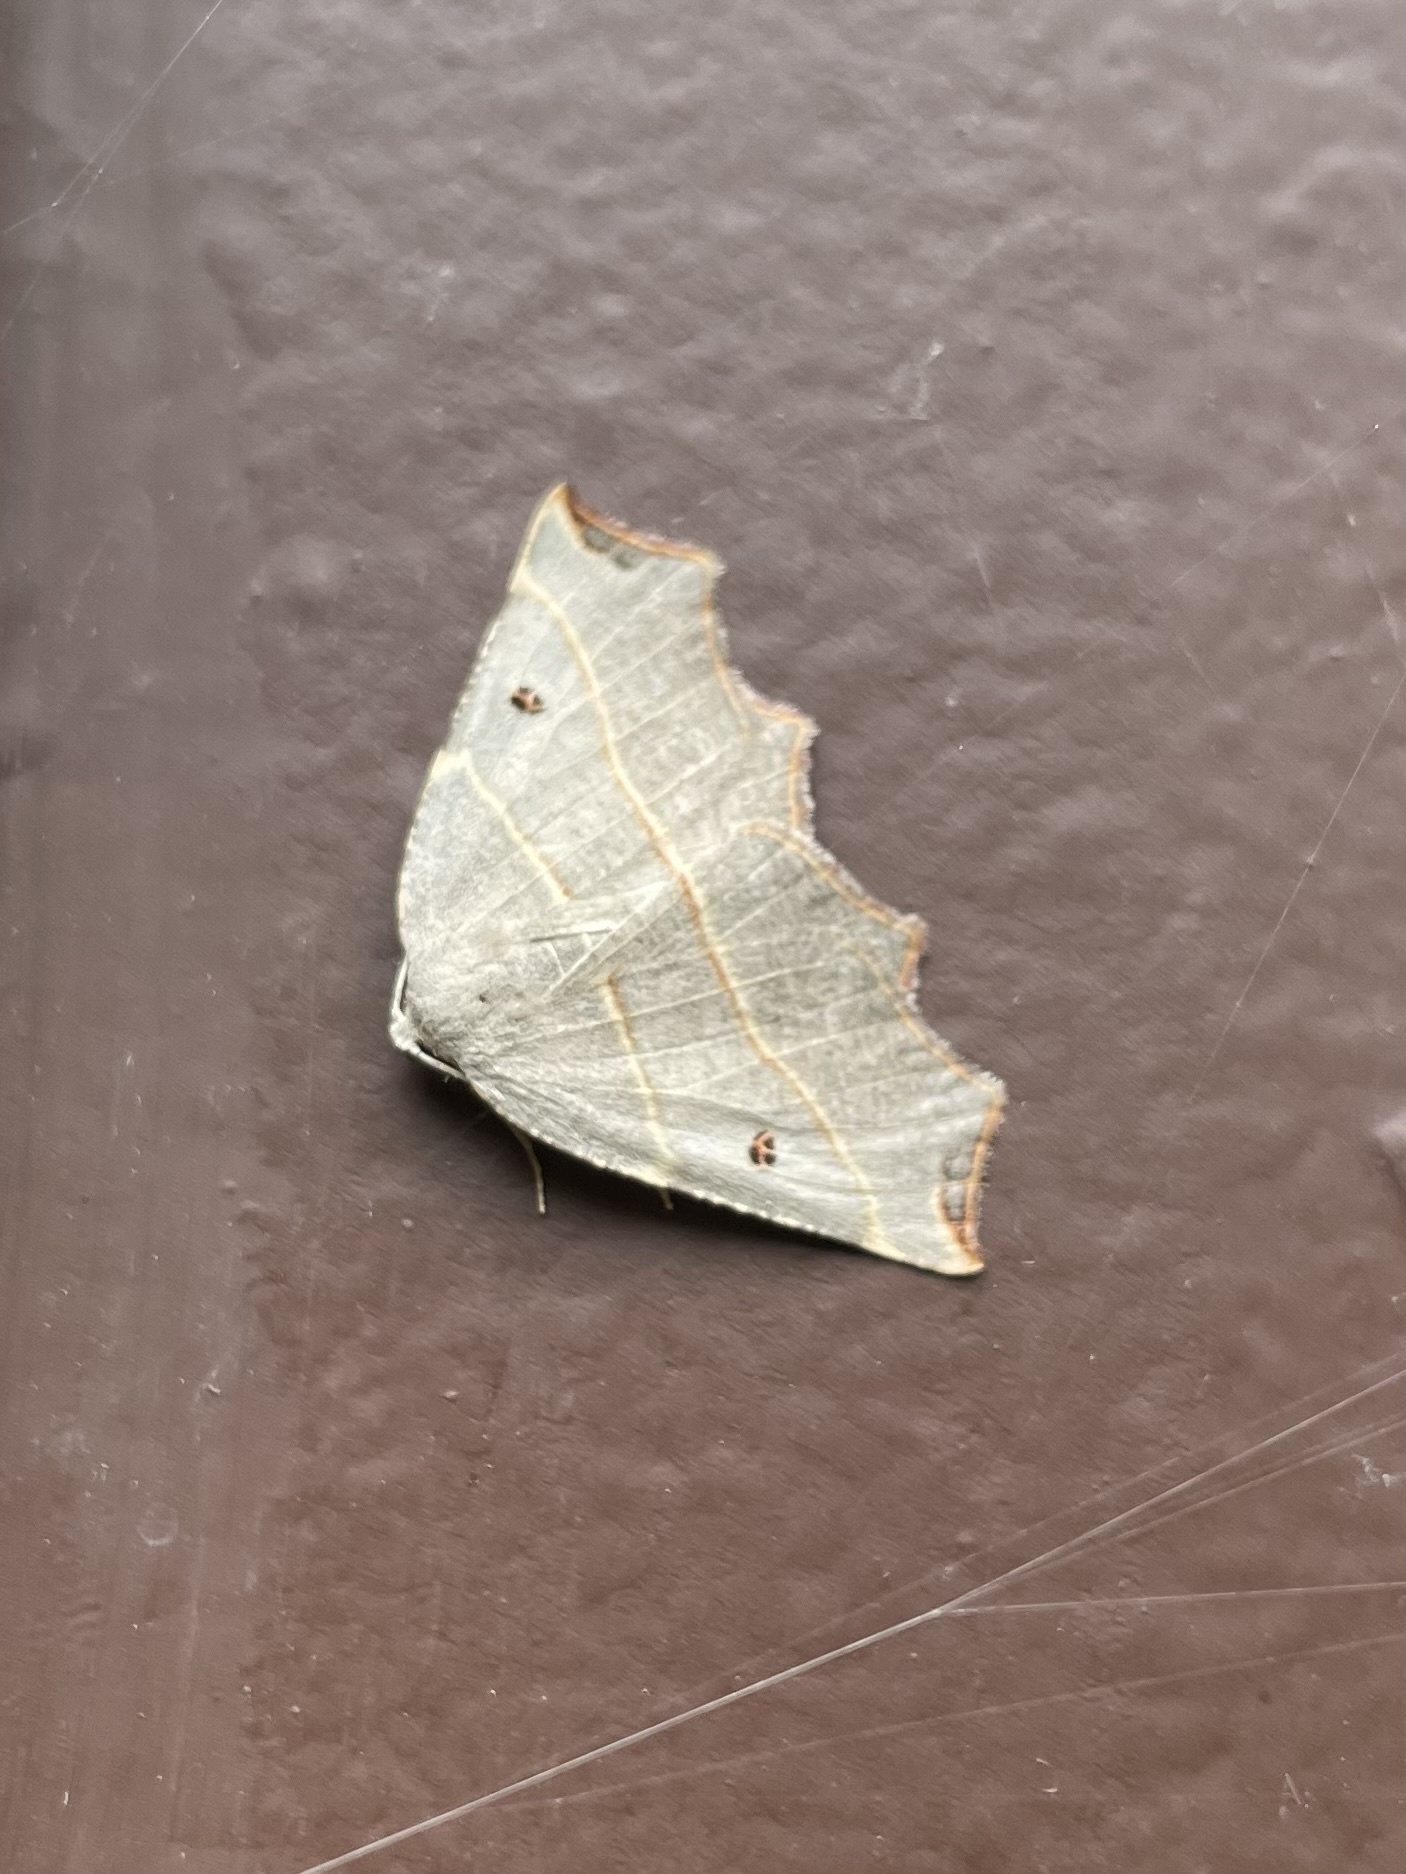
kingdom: Animalia
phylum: Arthropoda
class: Insecta
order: Lepidoptera
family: Geometridae
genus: Metanema
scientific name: Metanema inatomaria
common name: Pale metanema
